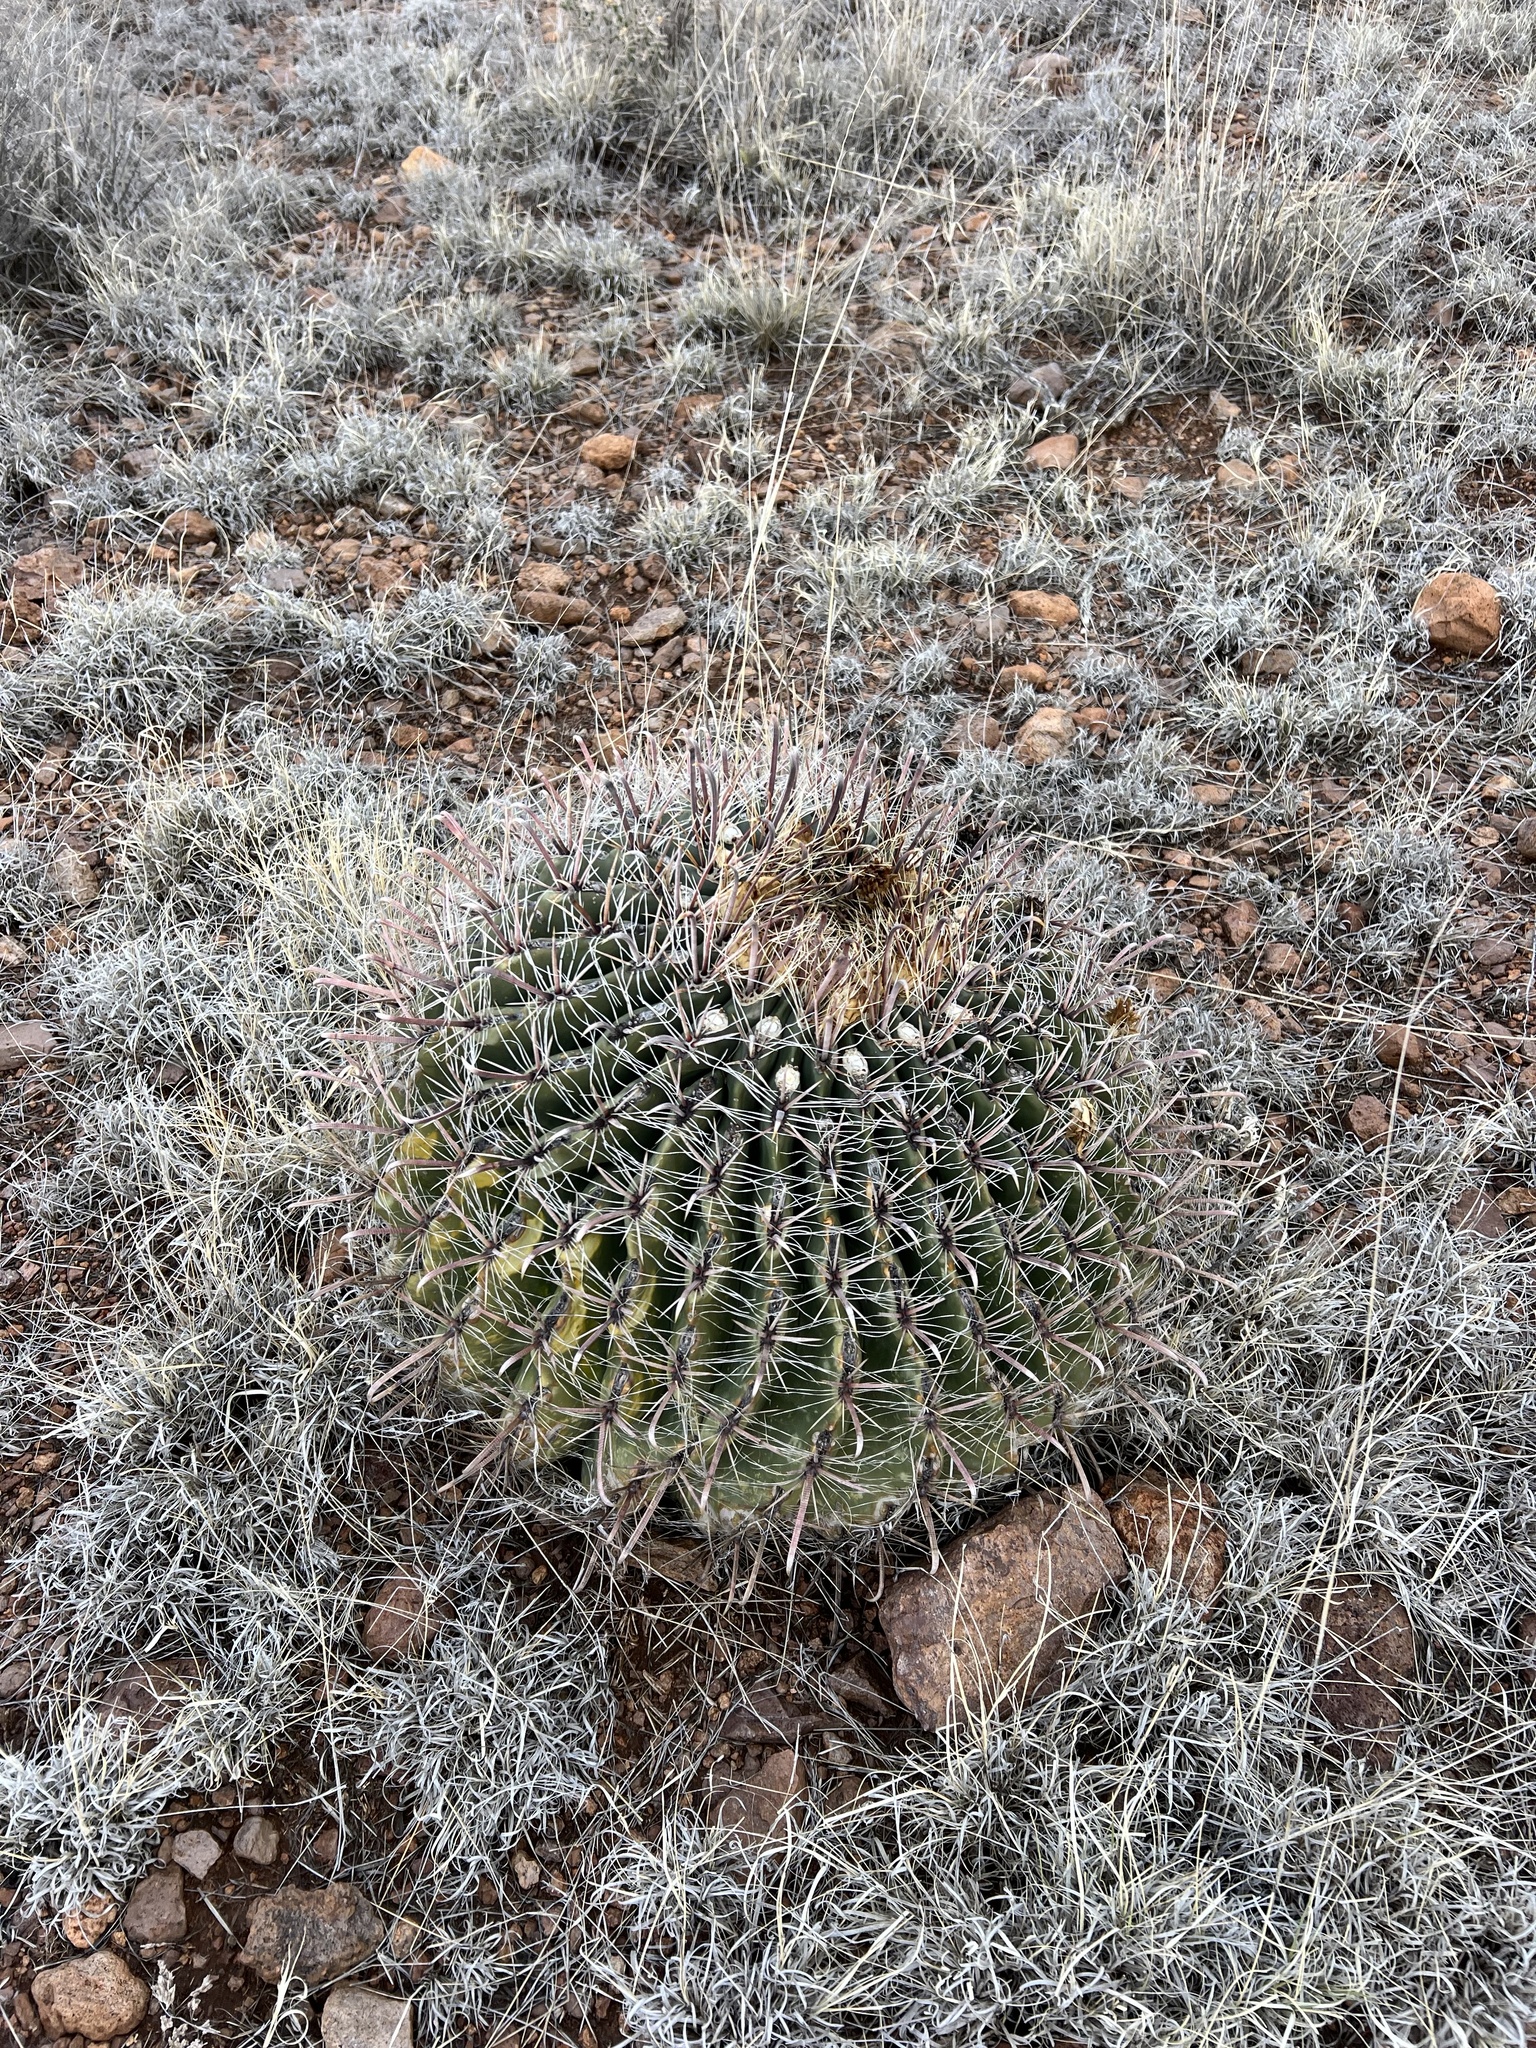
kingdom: Plantae
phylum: Tracheophyta
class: Magnoliopsida
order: Caryophyllales
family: Cactaceae
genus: Ferocactus
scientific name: Ferocactus wislizeni
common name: Candy barrel cactus
